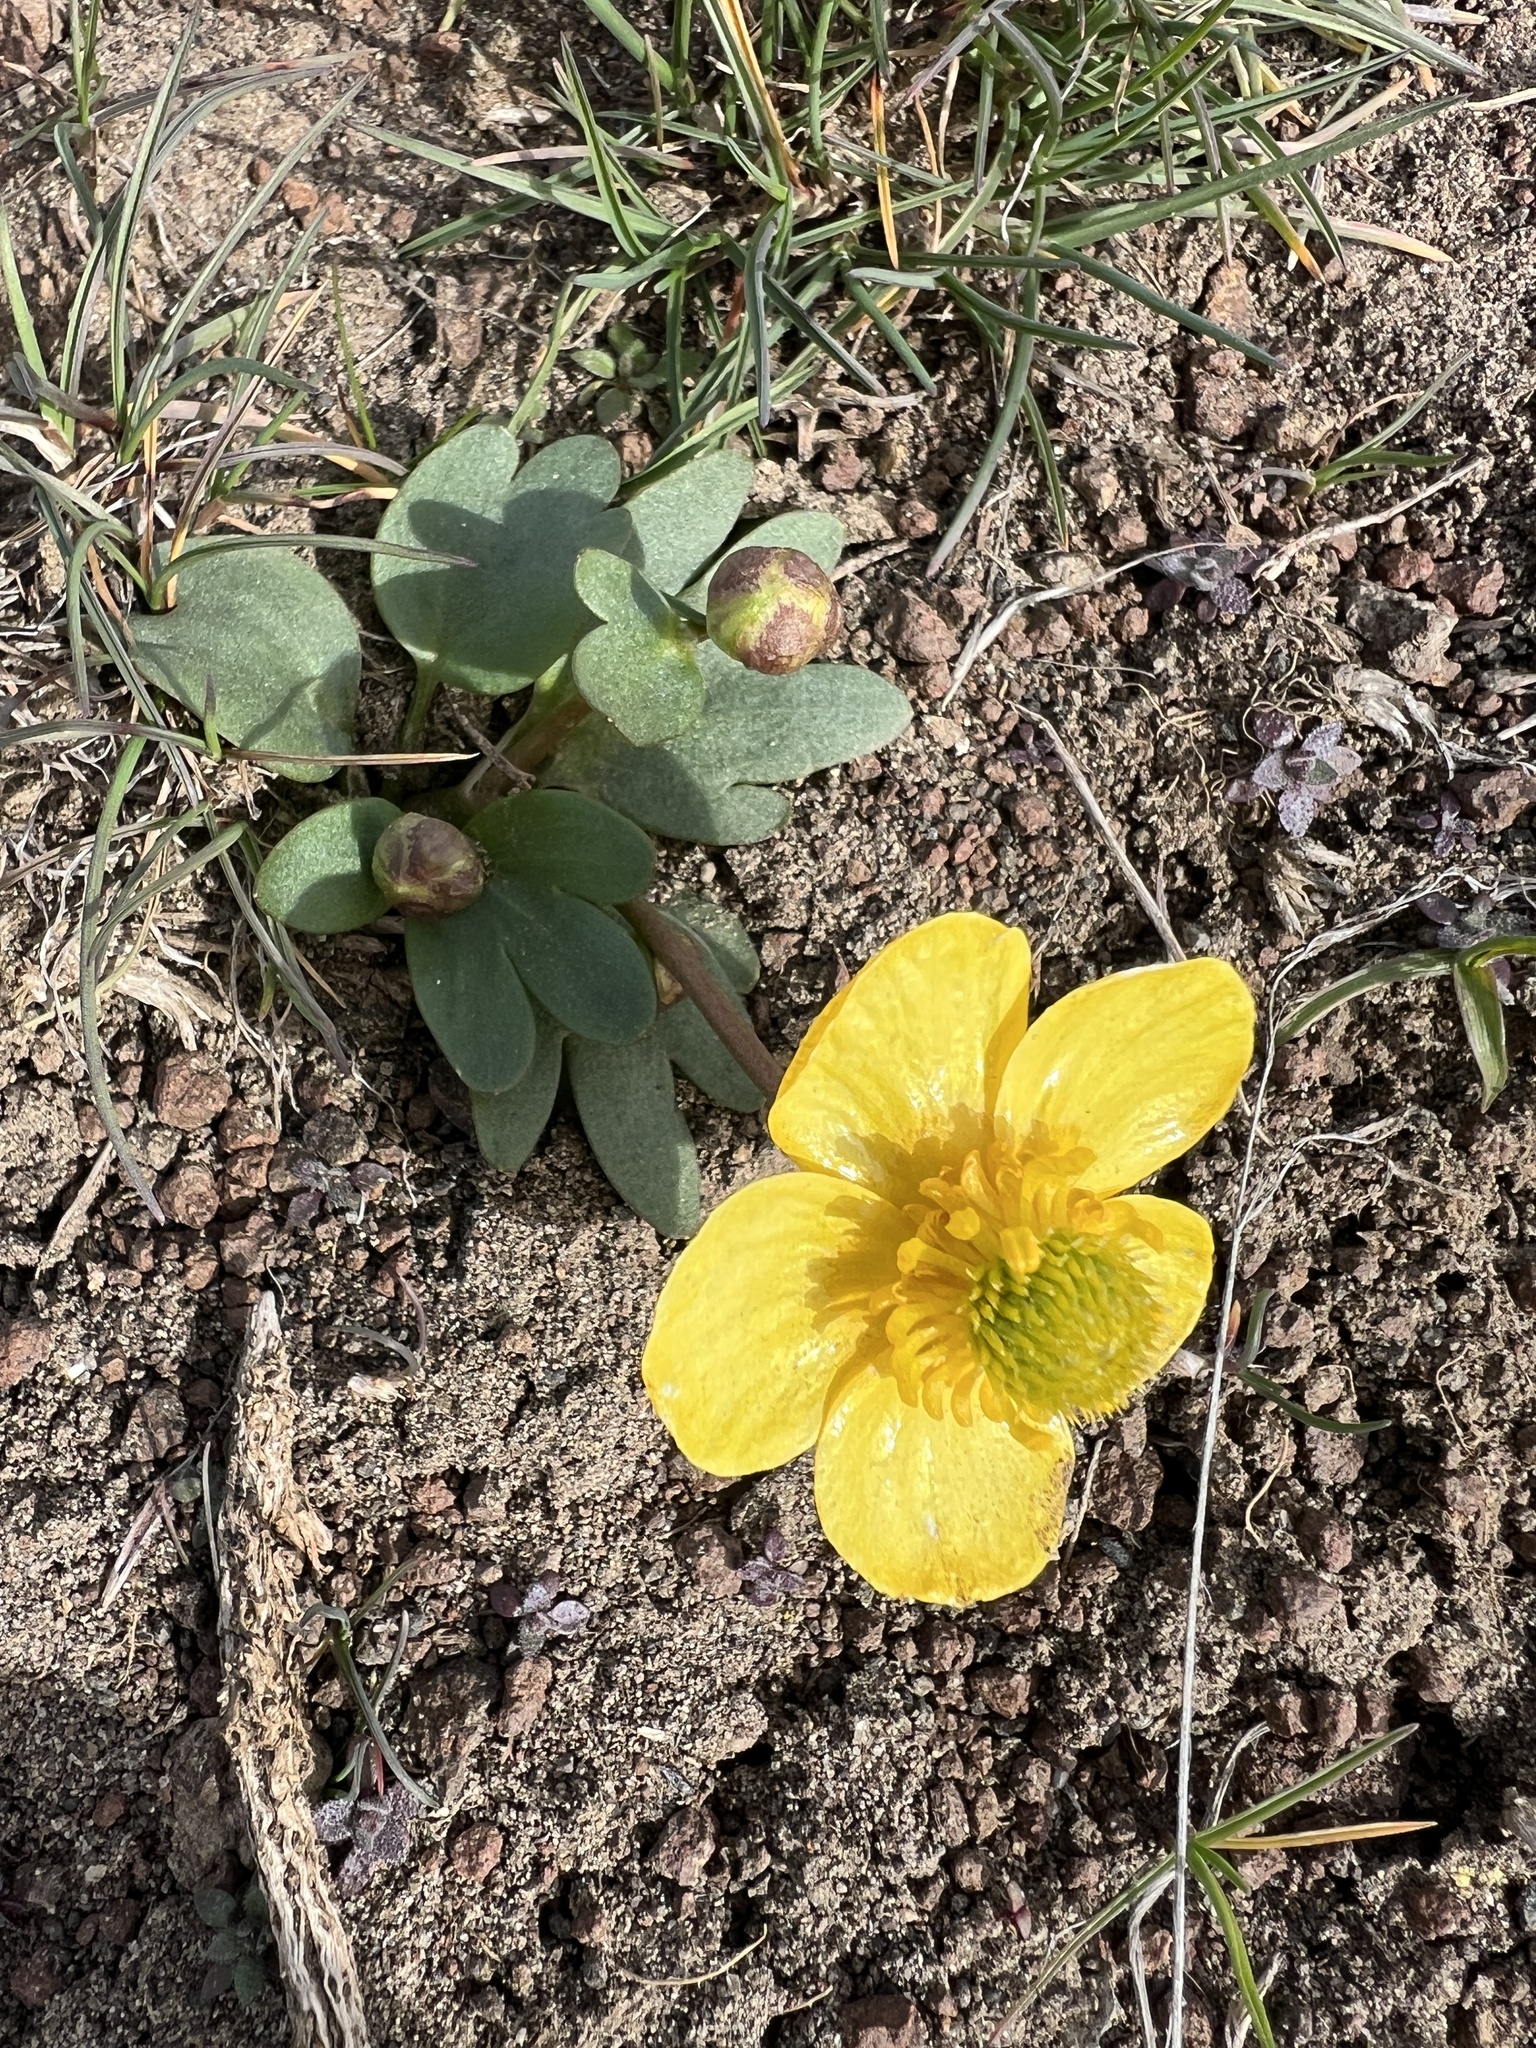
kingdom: Plantae
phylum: Tracheophyta
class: Magnoliopsida
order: Ranunculales
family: Ranunculaceae
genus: Ranunculus
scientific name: Ranunculus glaberrimus
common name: Sagebrush buttercup
